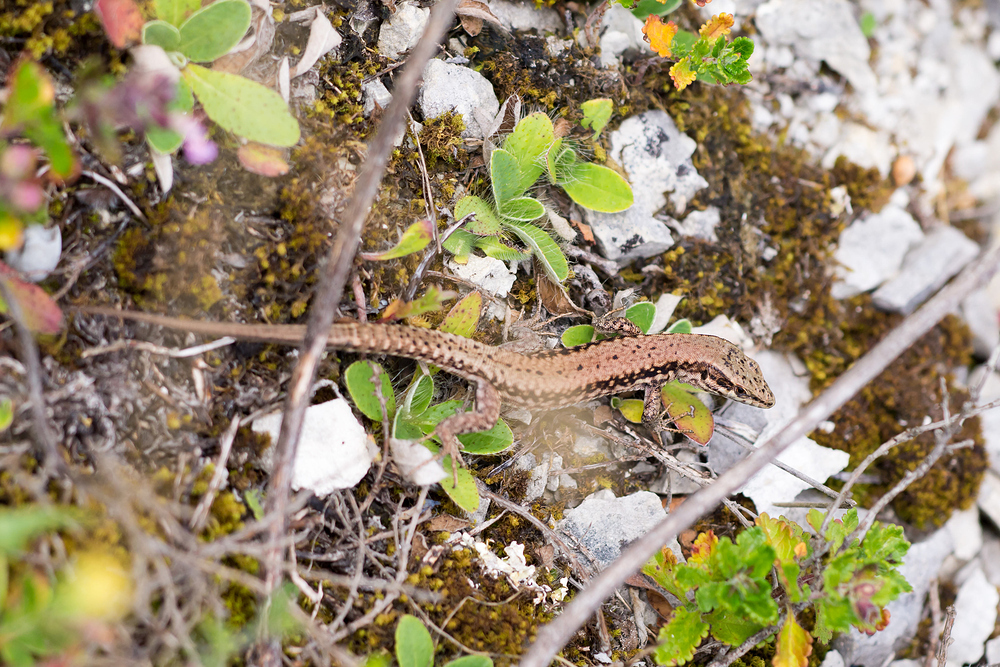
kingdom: Animalia
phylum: Chordata
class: Squamata
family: Lacertidae
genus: Podarcis
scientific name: Podarcis muralis
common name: Common wall lizard
